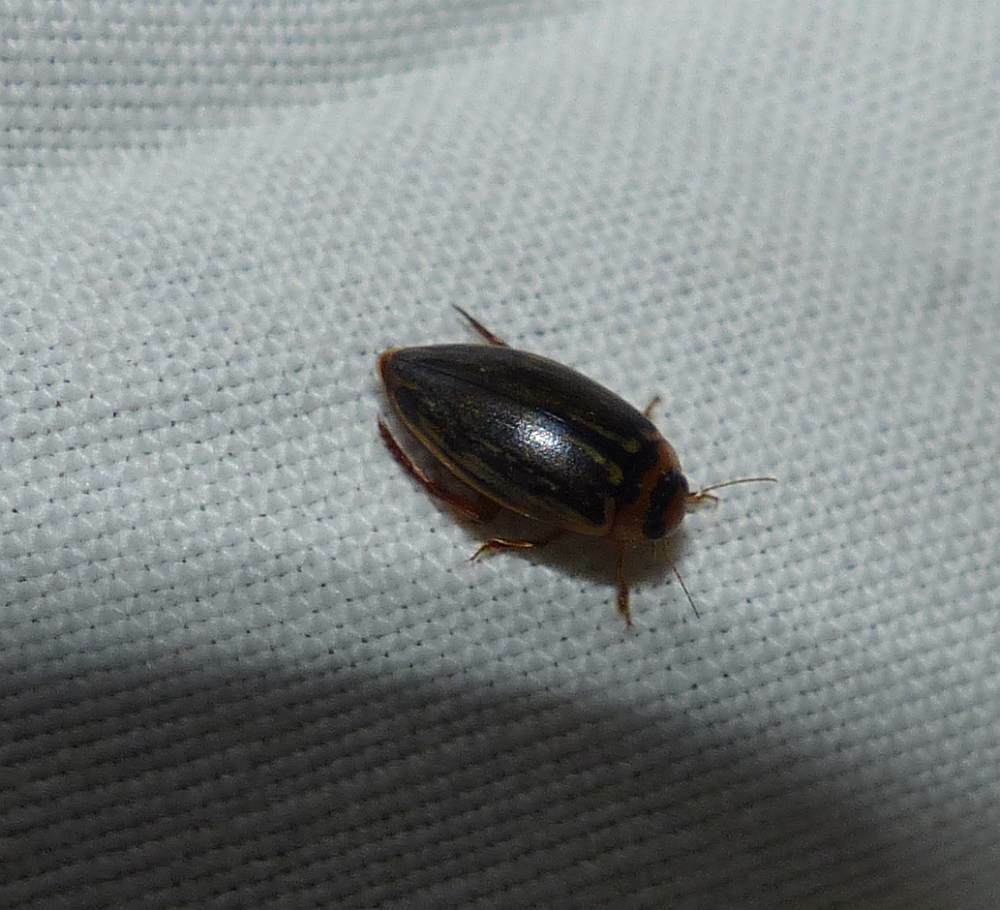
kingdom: Animalia
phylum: Arthropoda
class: Insecta
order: Coleoptera
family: Dytiscidae
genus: Coptotomus
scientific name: Coptotomus longulus
